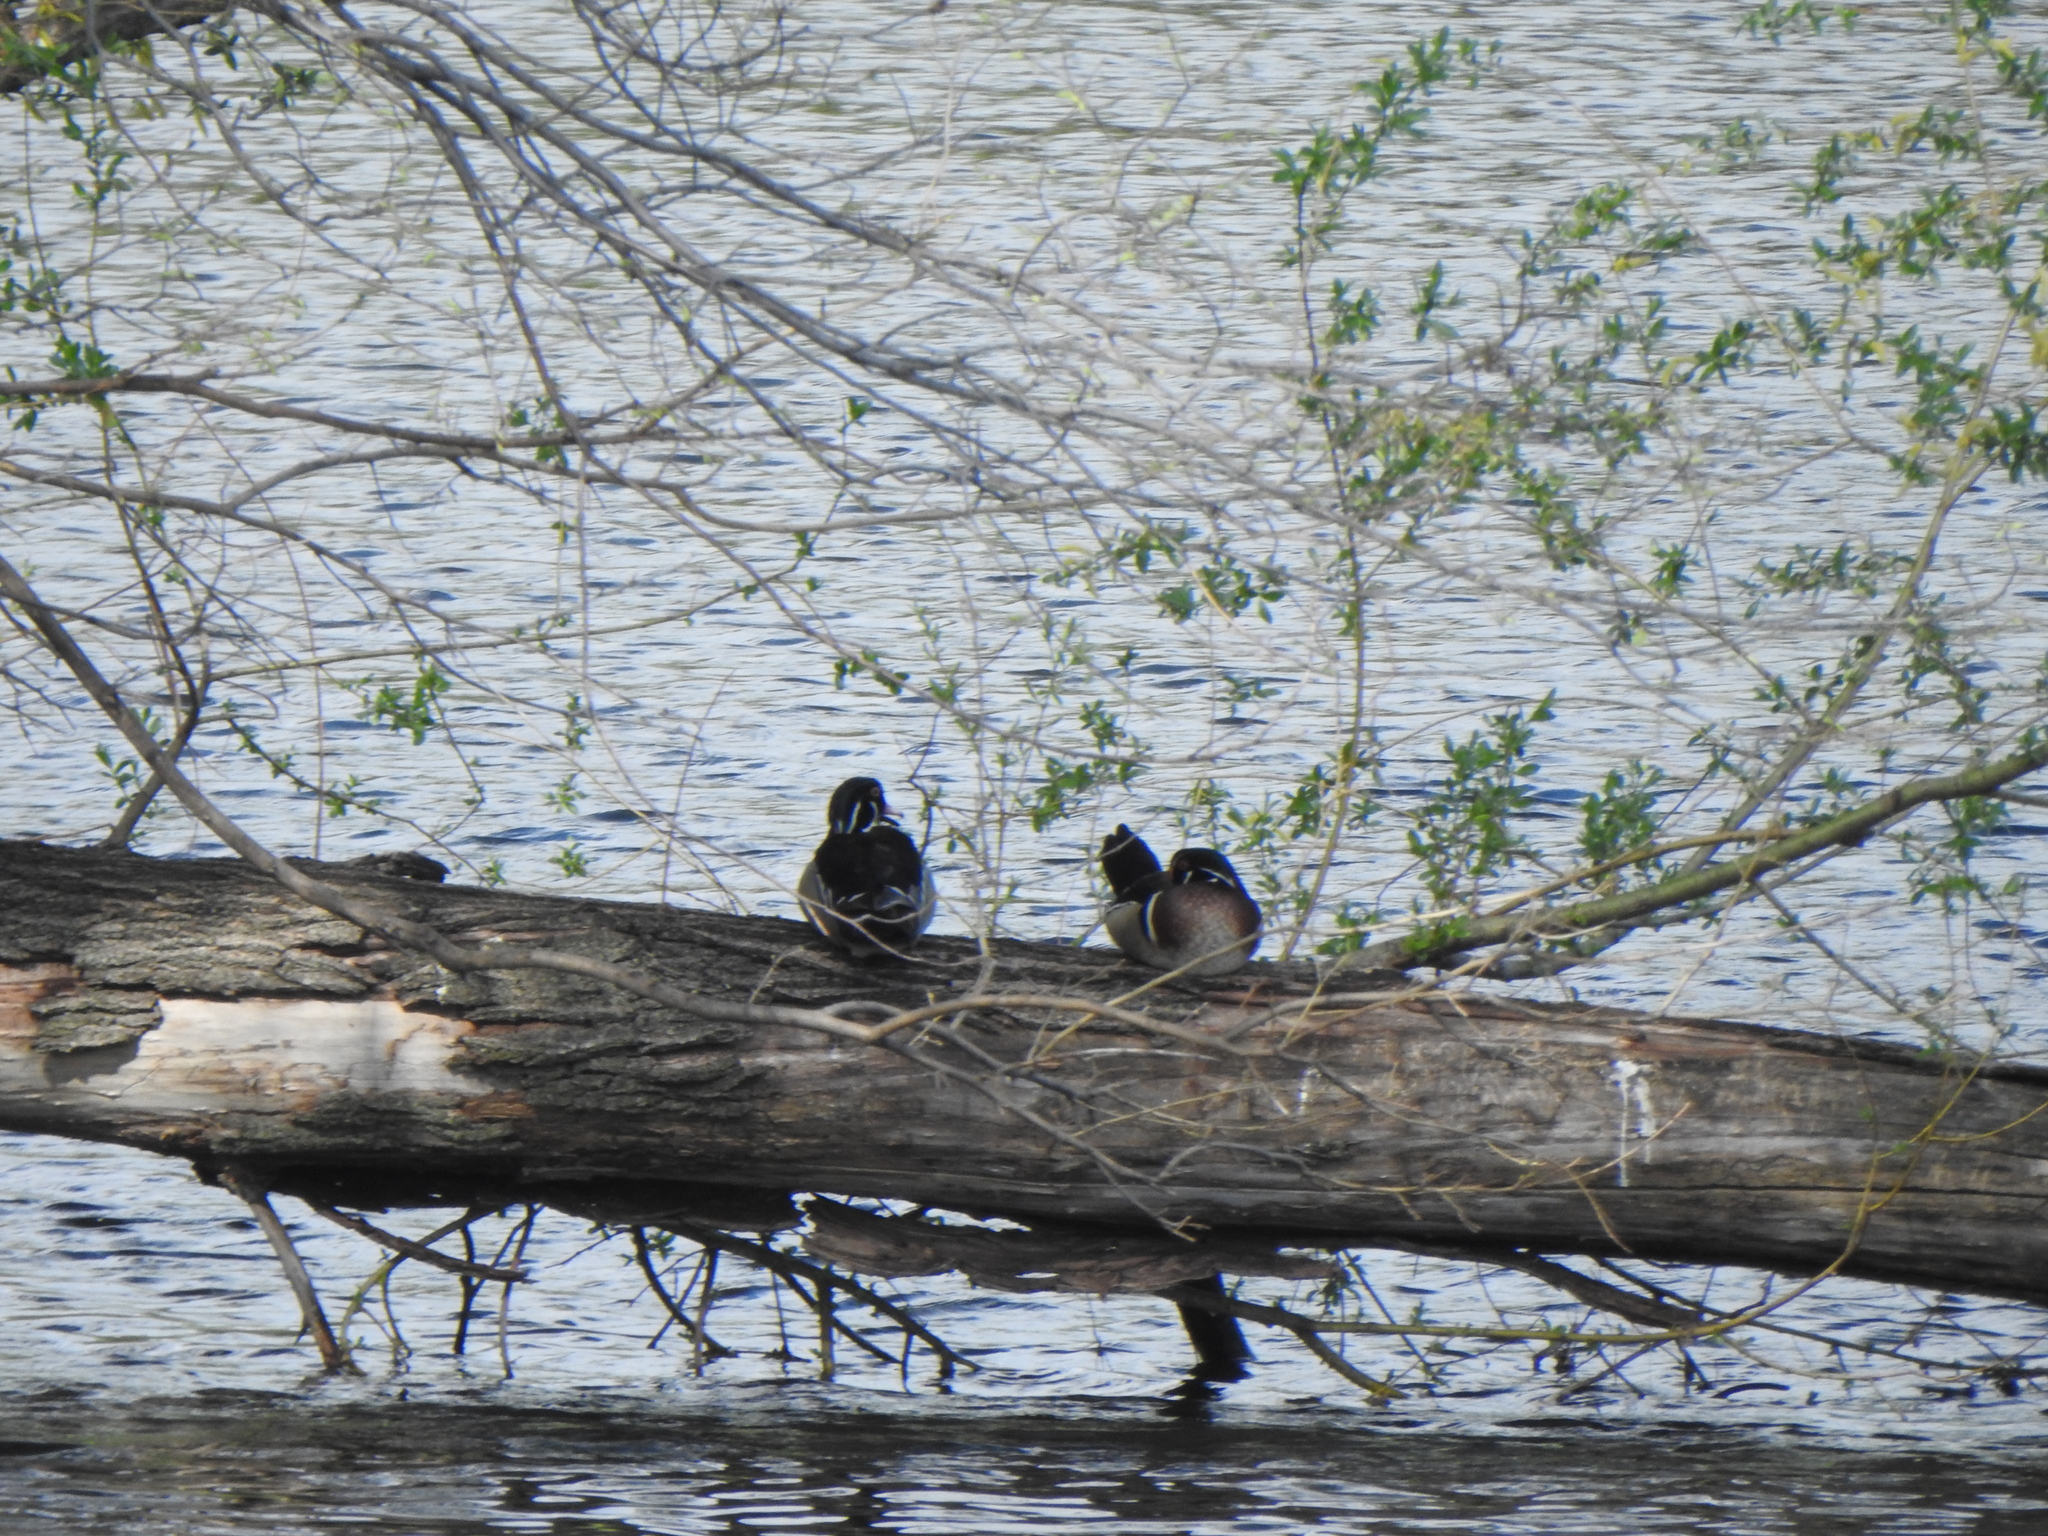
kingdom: Animalia
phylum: Chordata
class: Aves
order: Anseriformes
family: Anatidae
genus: Aix
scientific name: Aix sponsa
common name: Wood duck
